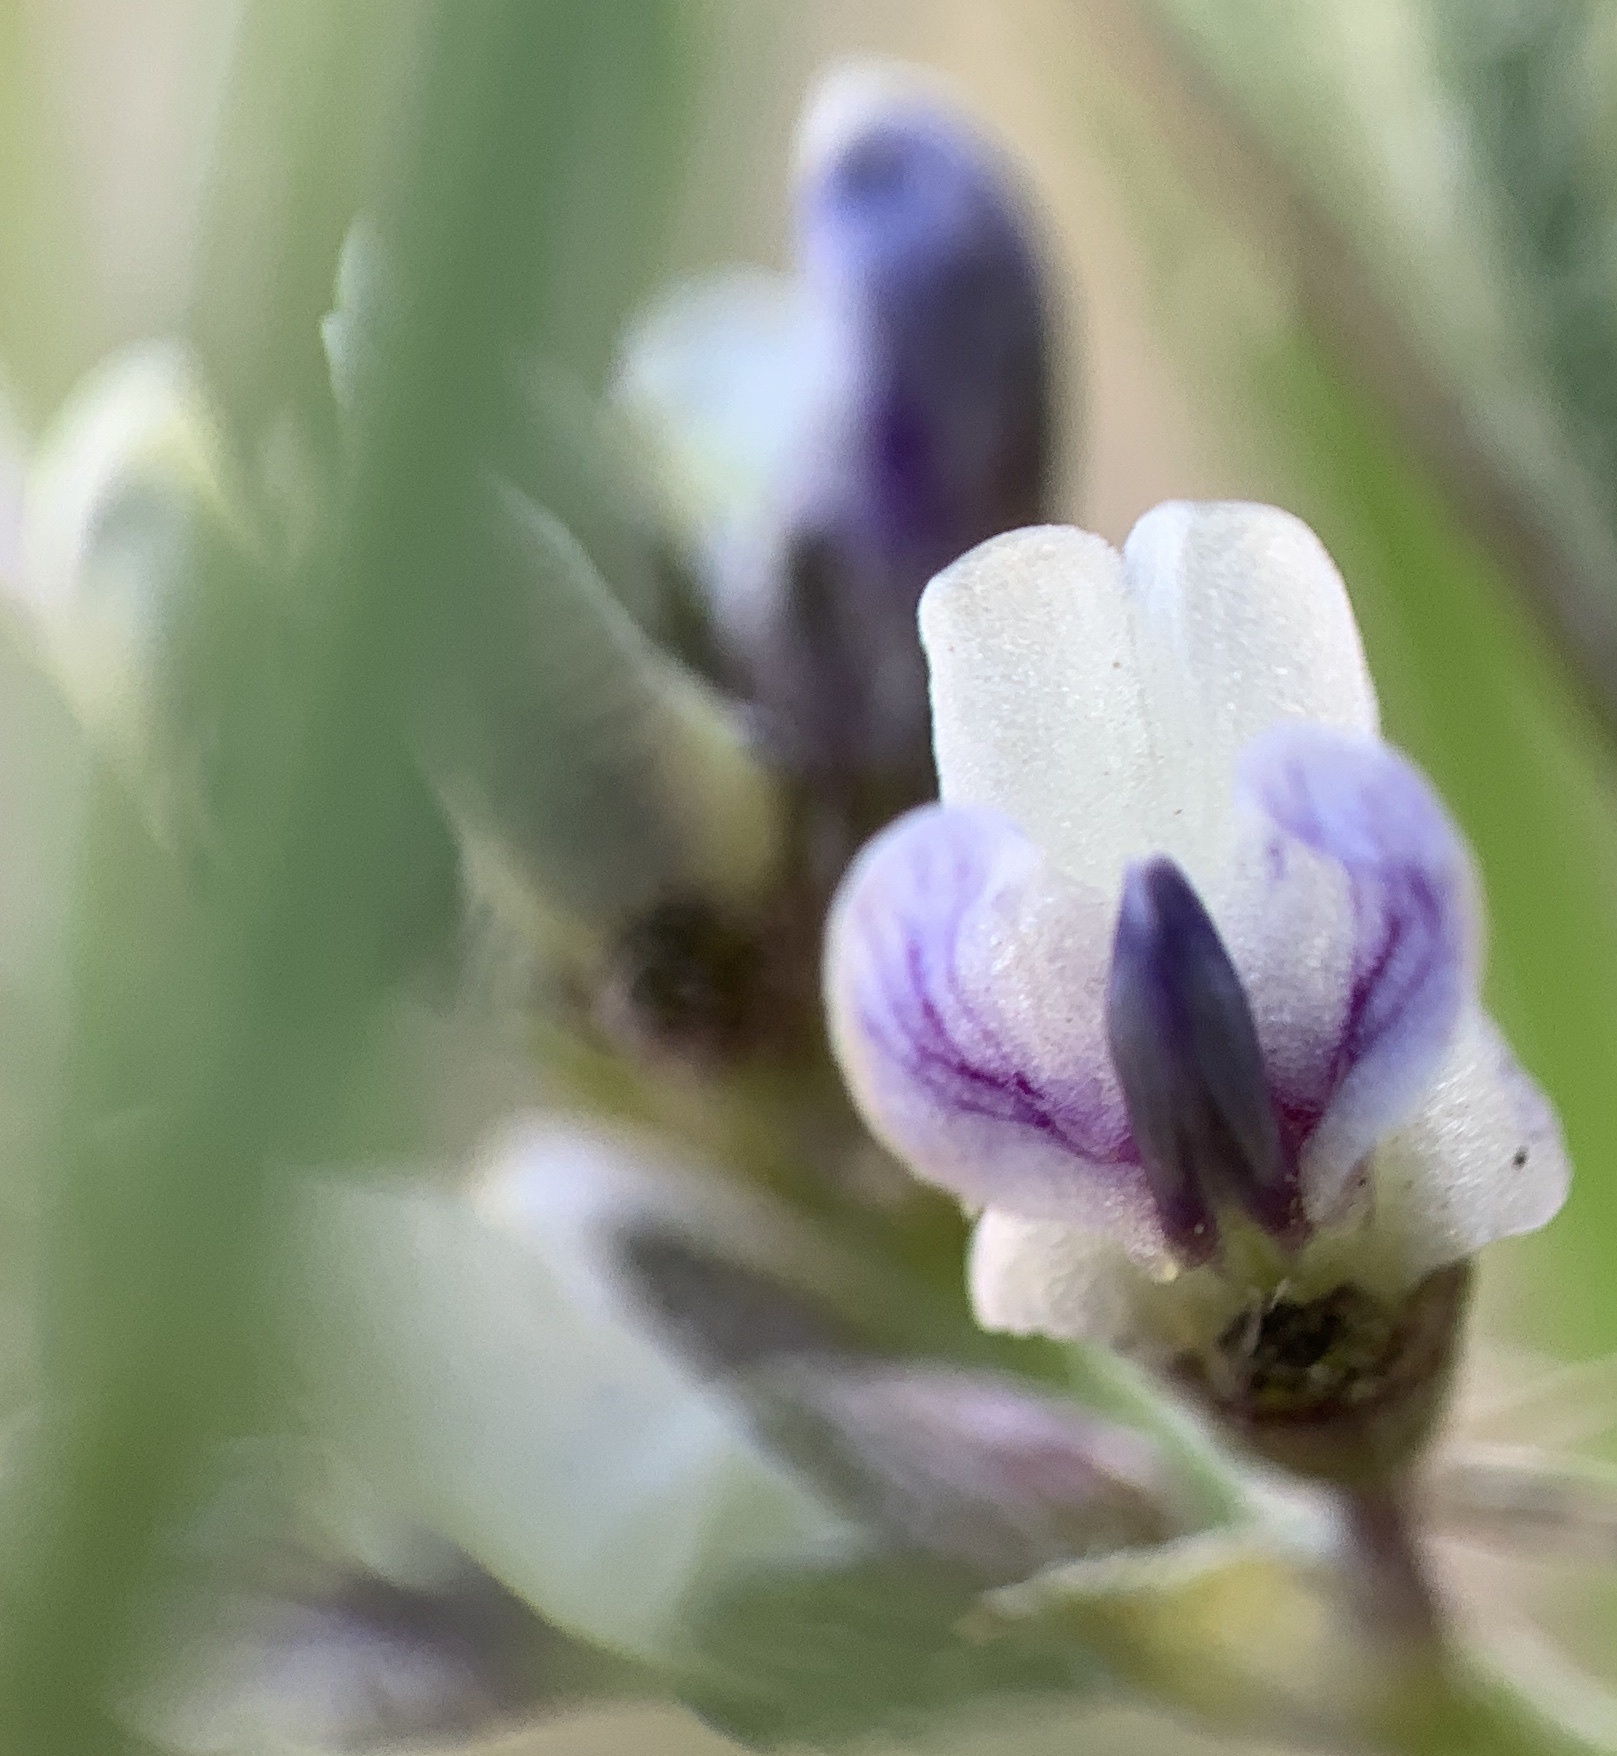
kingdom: Plantae
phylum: Tracheophyta
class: Magnoliopsida
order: Fabales
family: Fabaceae
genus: Ladeania
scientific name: Ladeania lanceolata
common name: Dune scurf-pea
